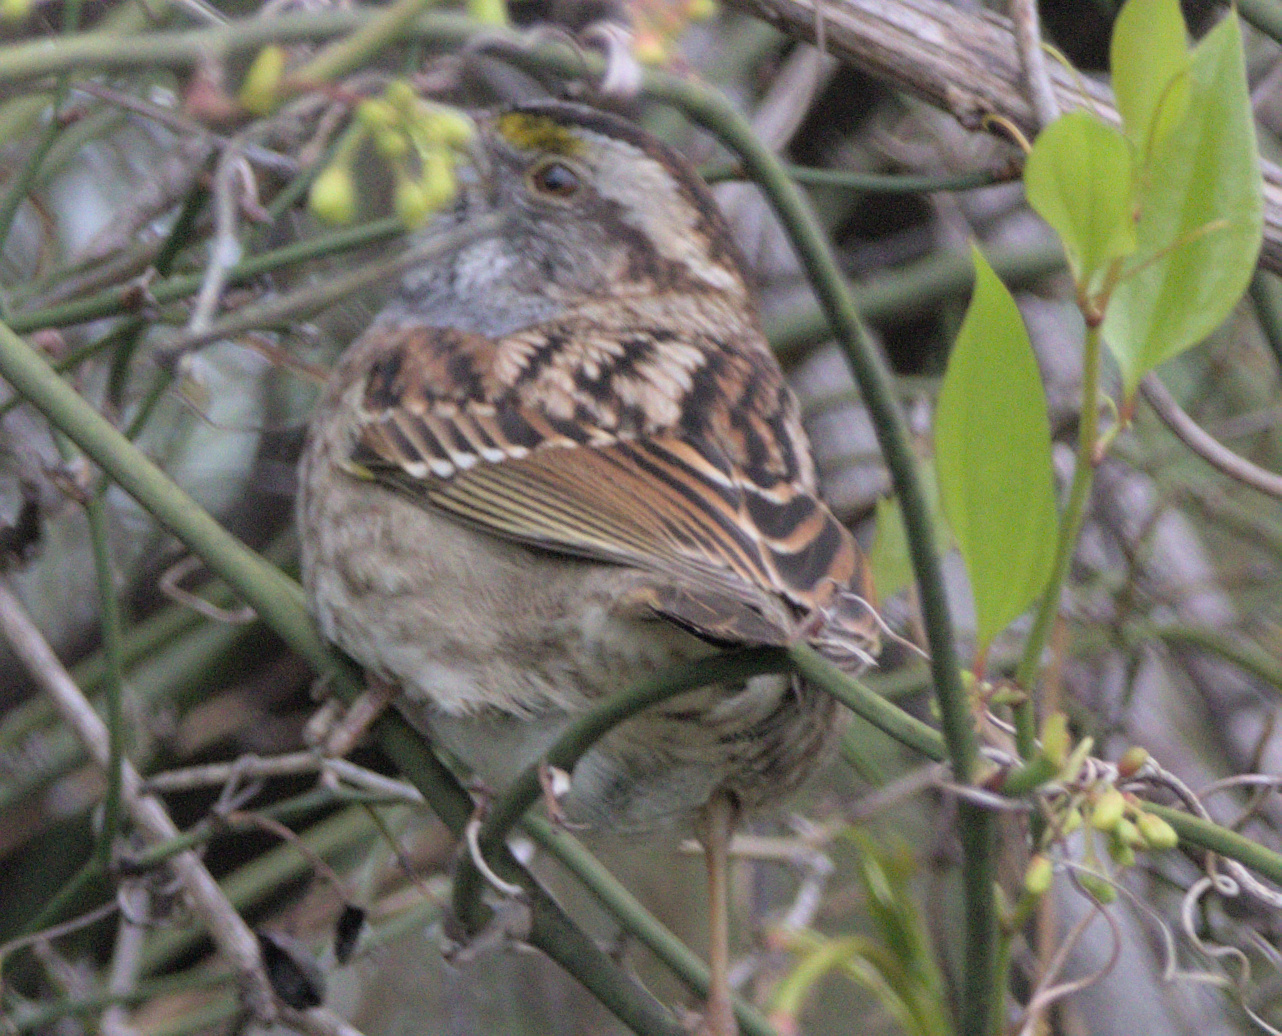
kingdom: Animalia
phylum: Chordata
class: Aves
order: Passeriformes
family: Passerellidae
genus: Zonotrichia
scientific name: Zonotrichia albicollis
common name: White-throated sparrow
